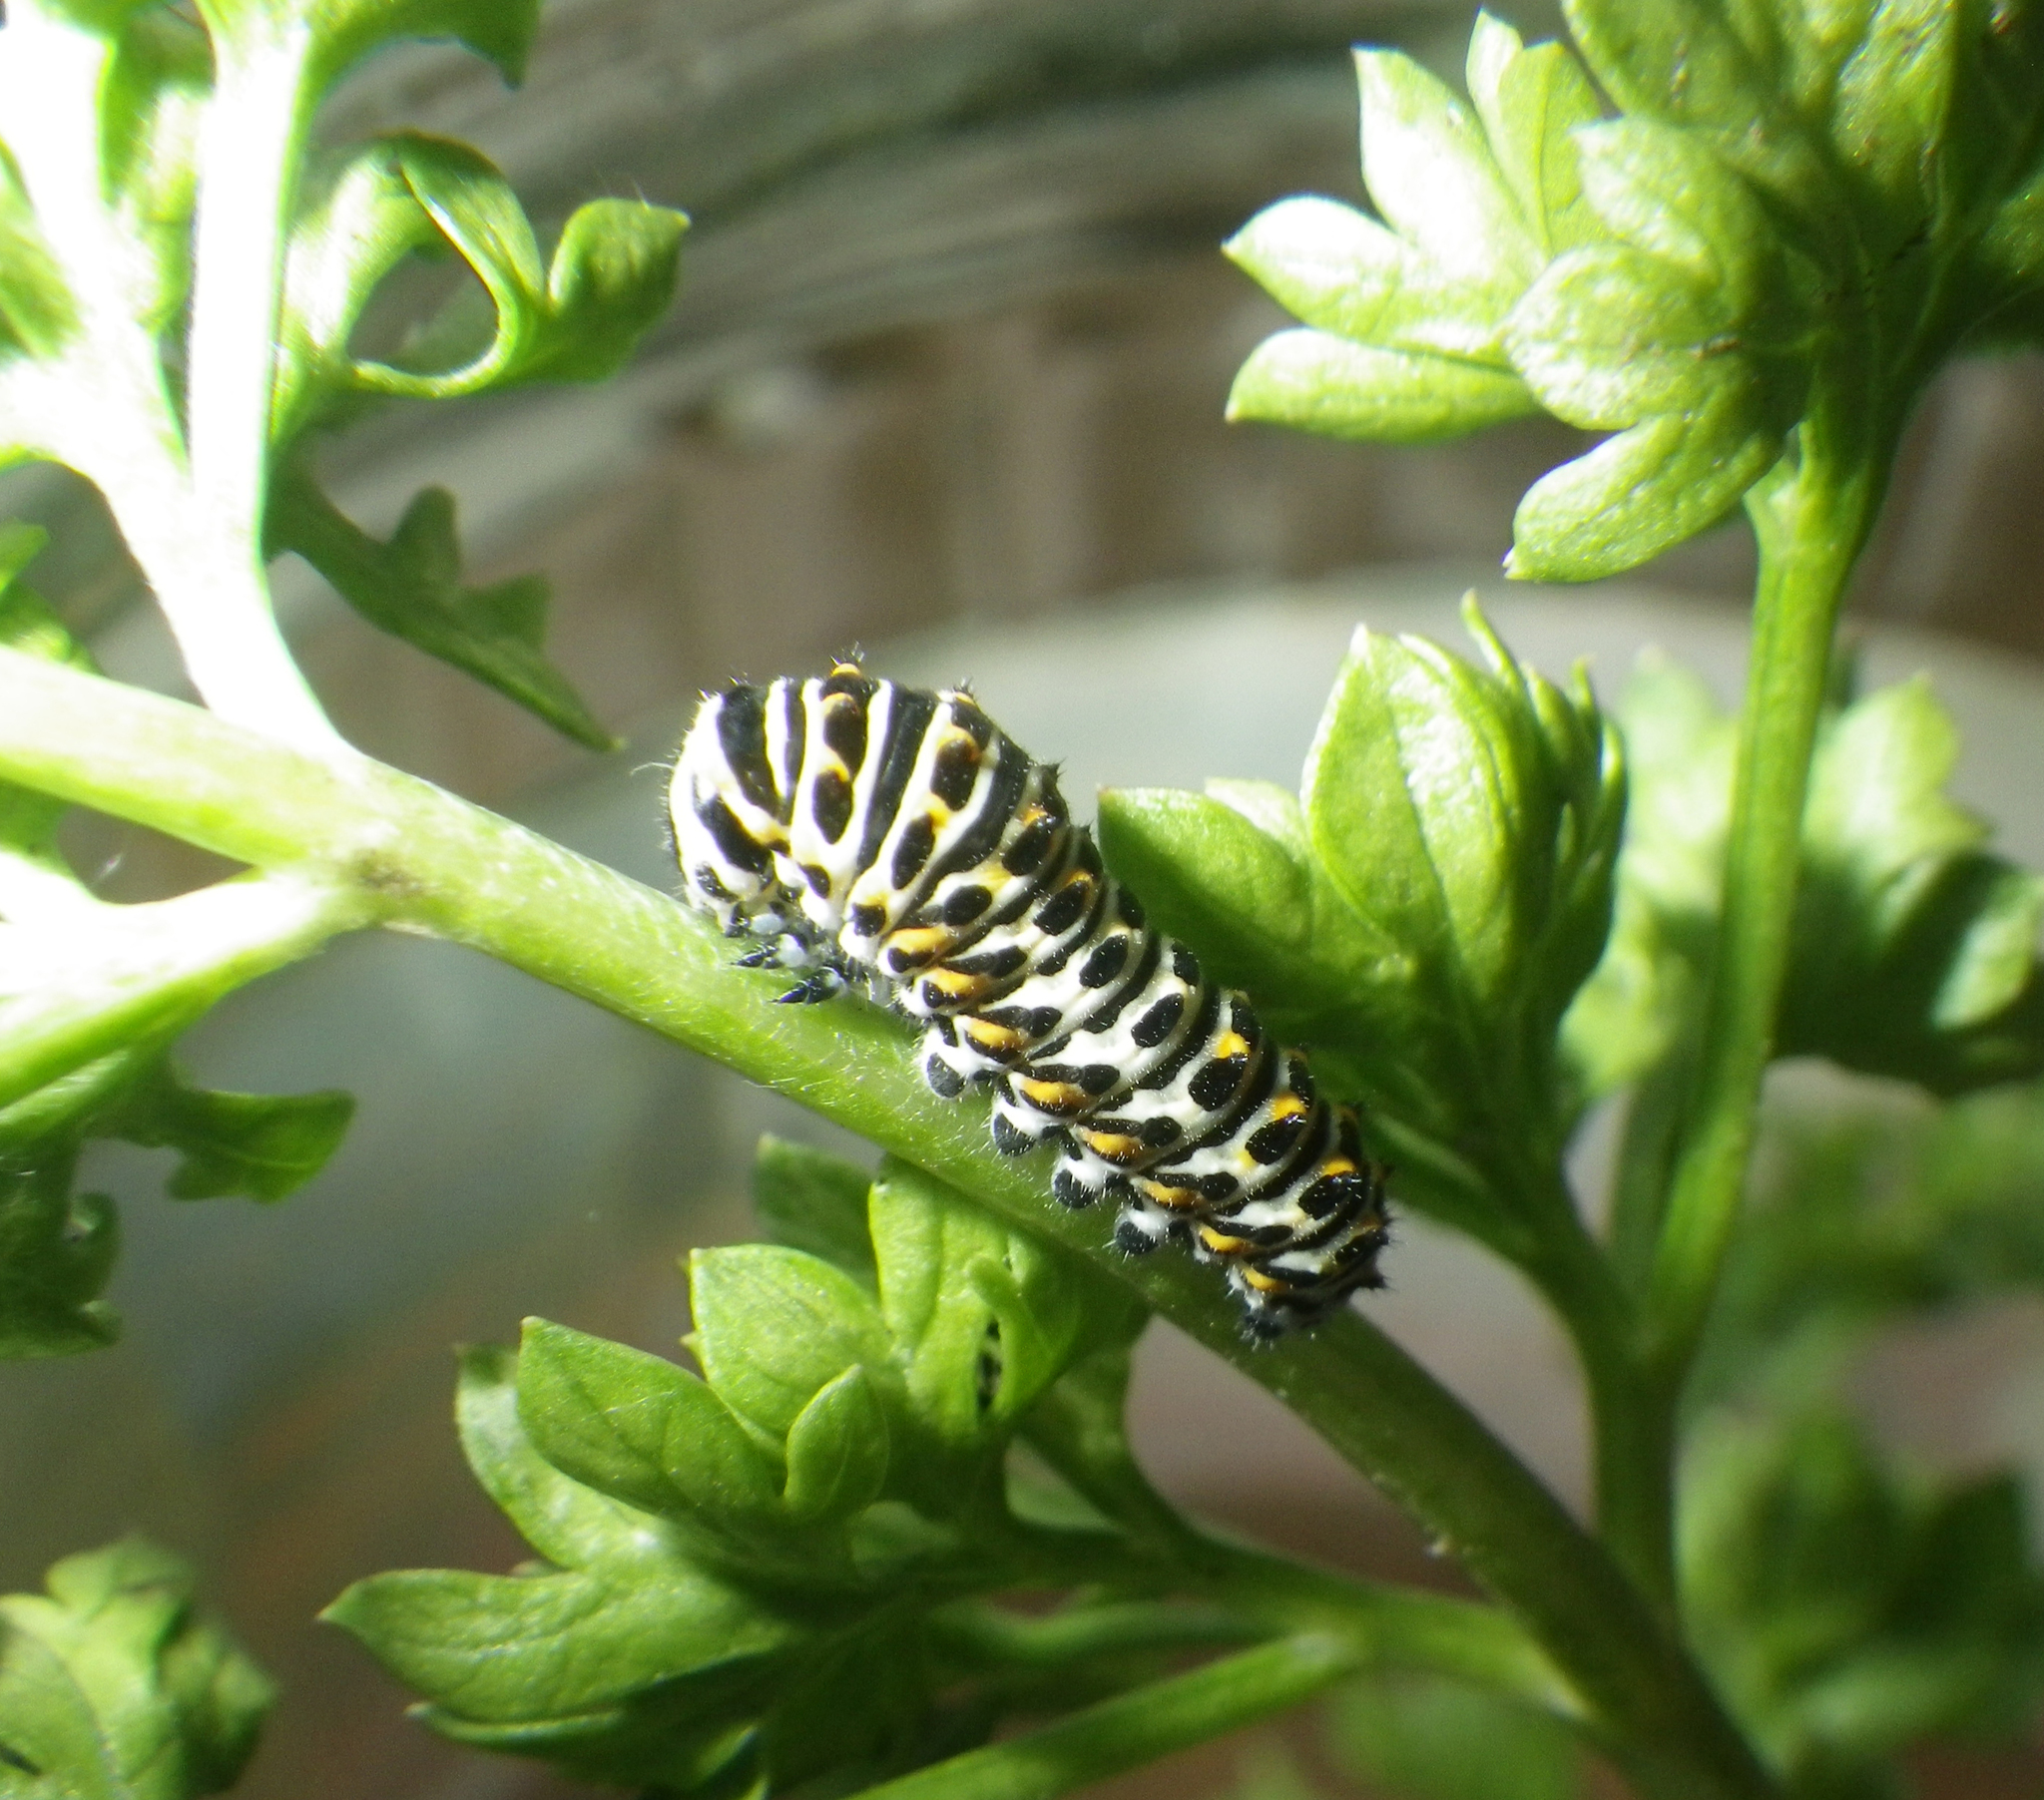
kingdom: Animalia
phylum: Arthropoda
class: Insecta
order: Lepidoptera
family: Papilionidae
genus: Papilio
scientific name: Papilio machaon
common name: Swallowtail
